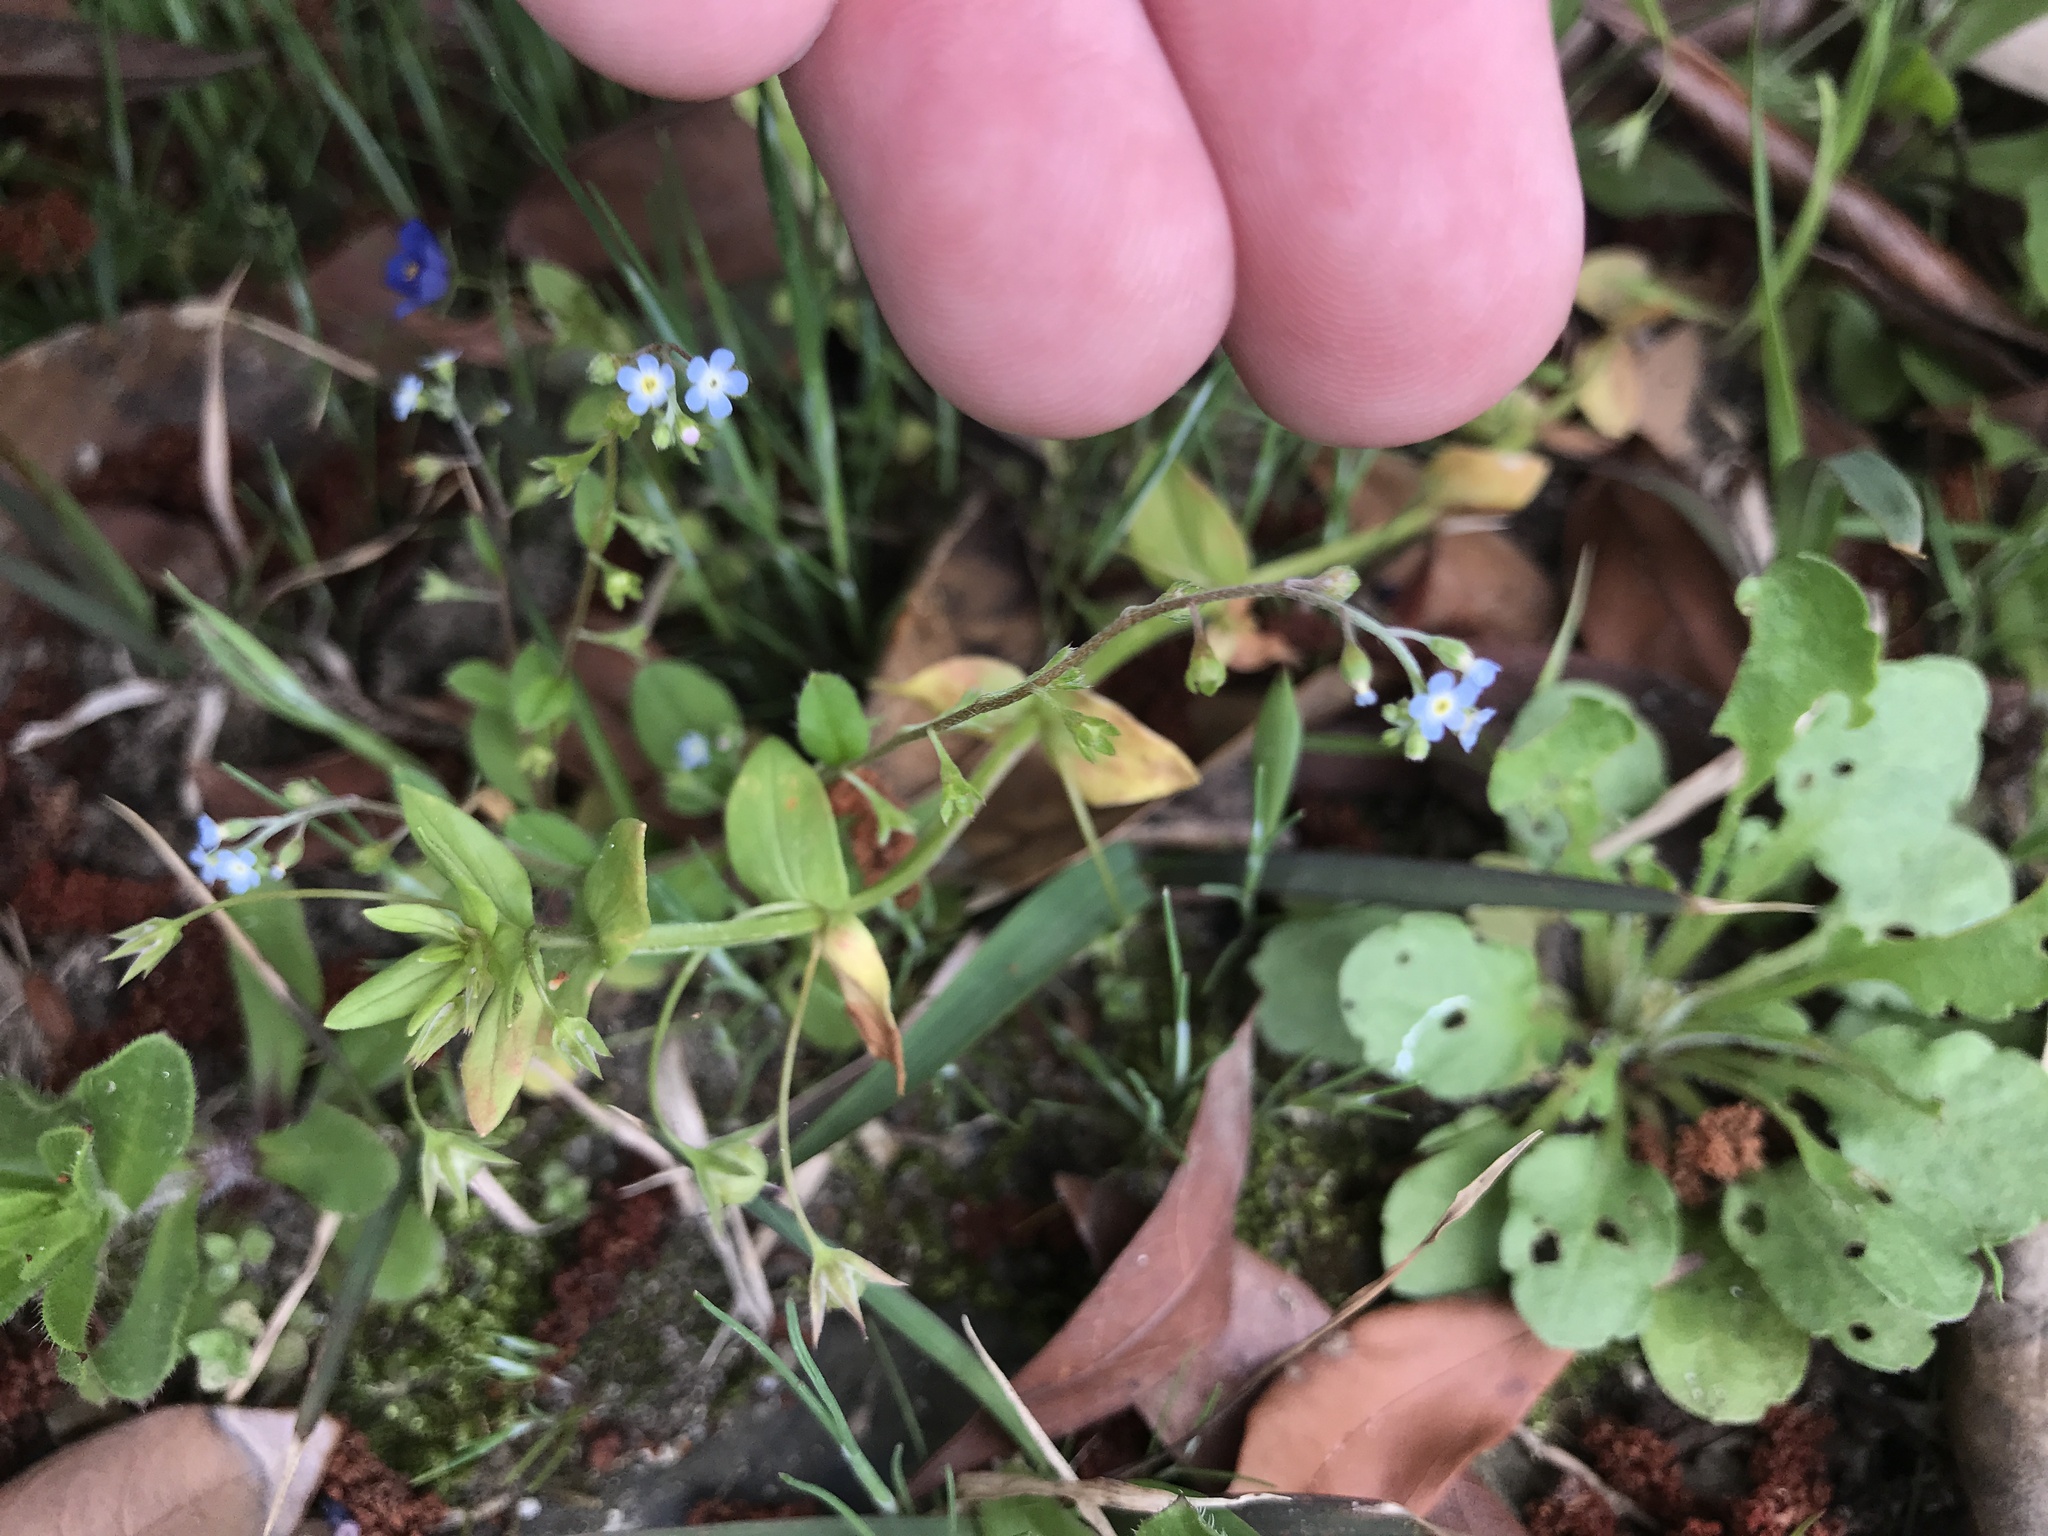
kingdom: Plantae
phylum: Tracheophyta
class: Magnoliopsida
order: Boraginales
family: Boraginaceae
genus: Trigonotis
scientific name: Trigonotis peduncularis
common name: Cucumber herb
